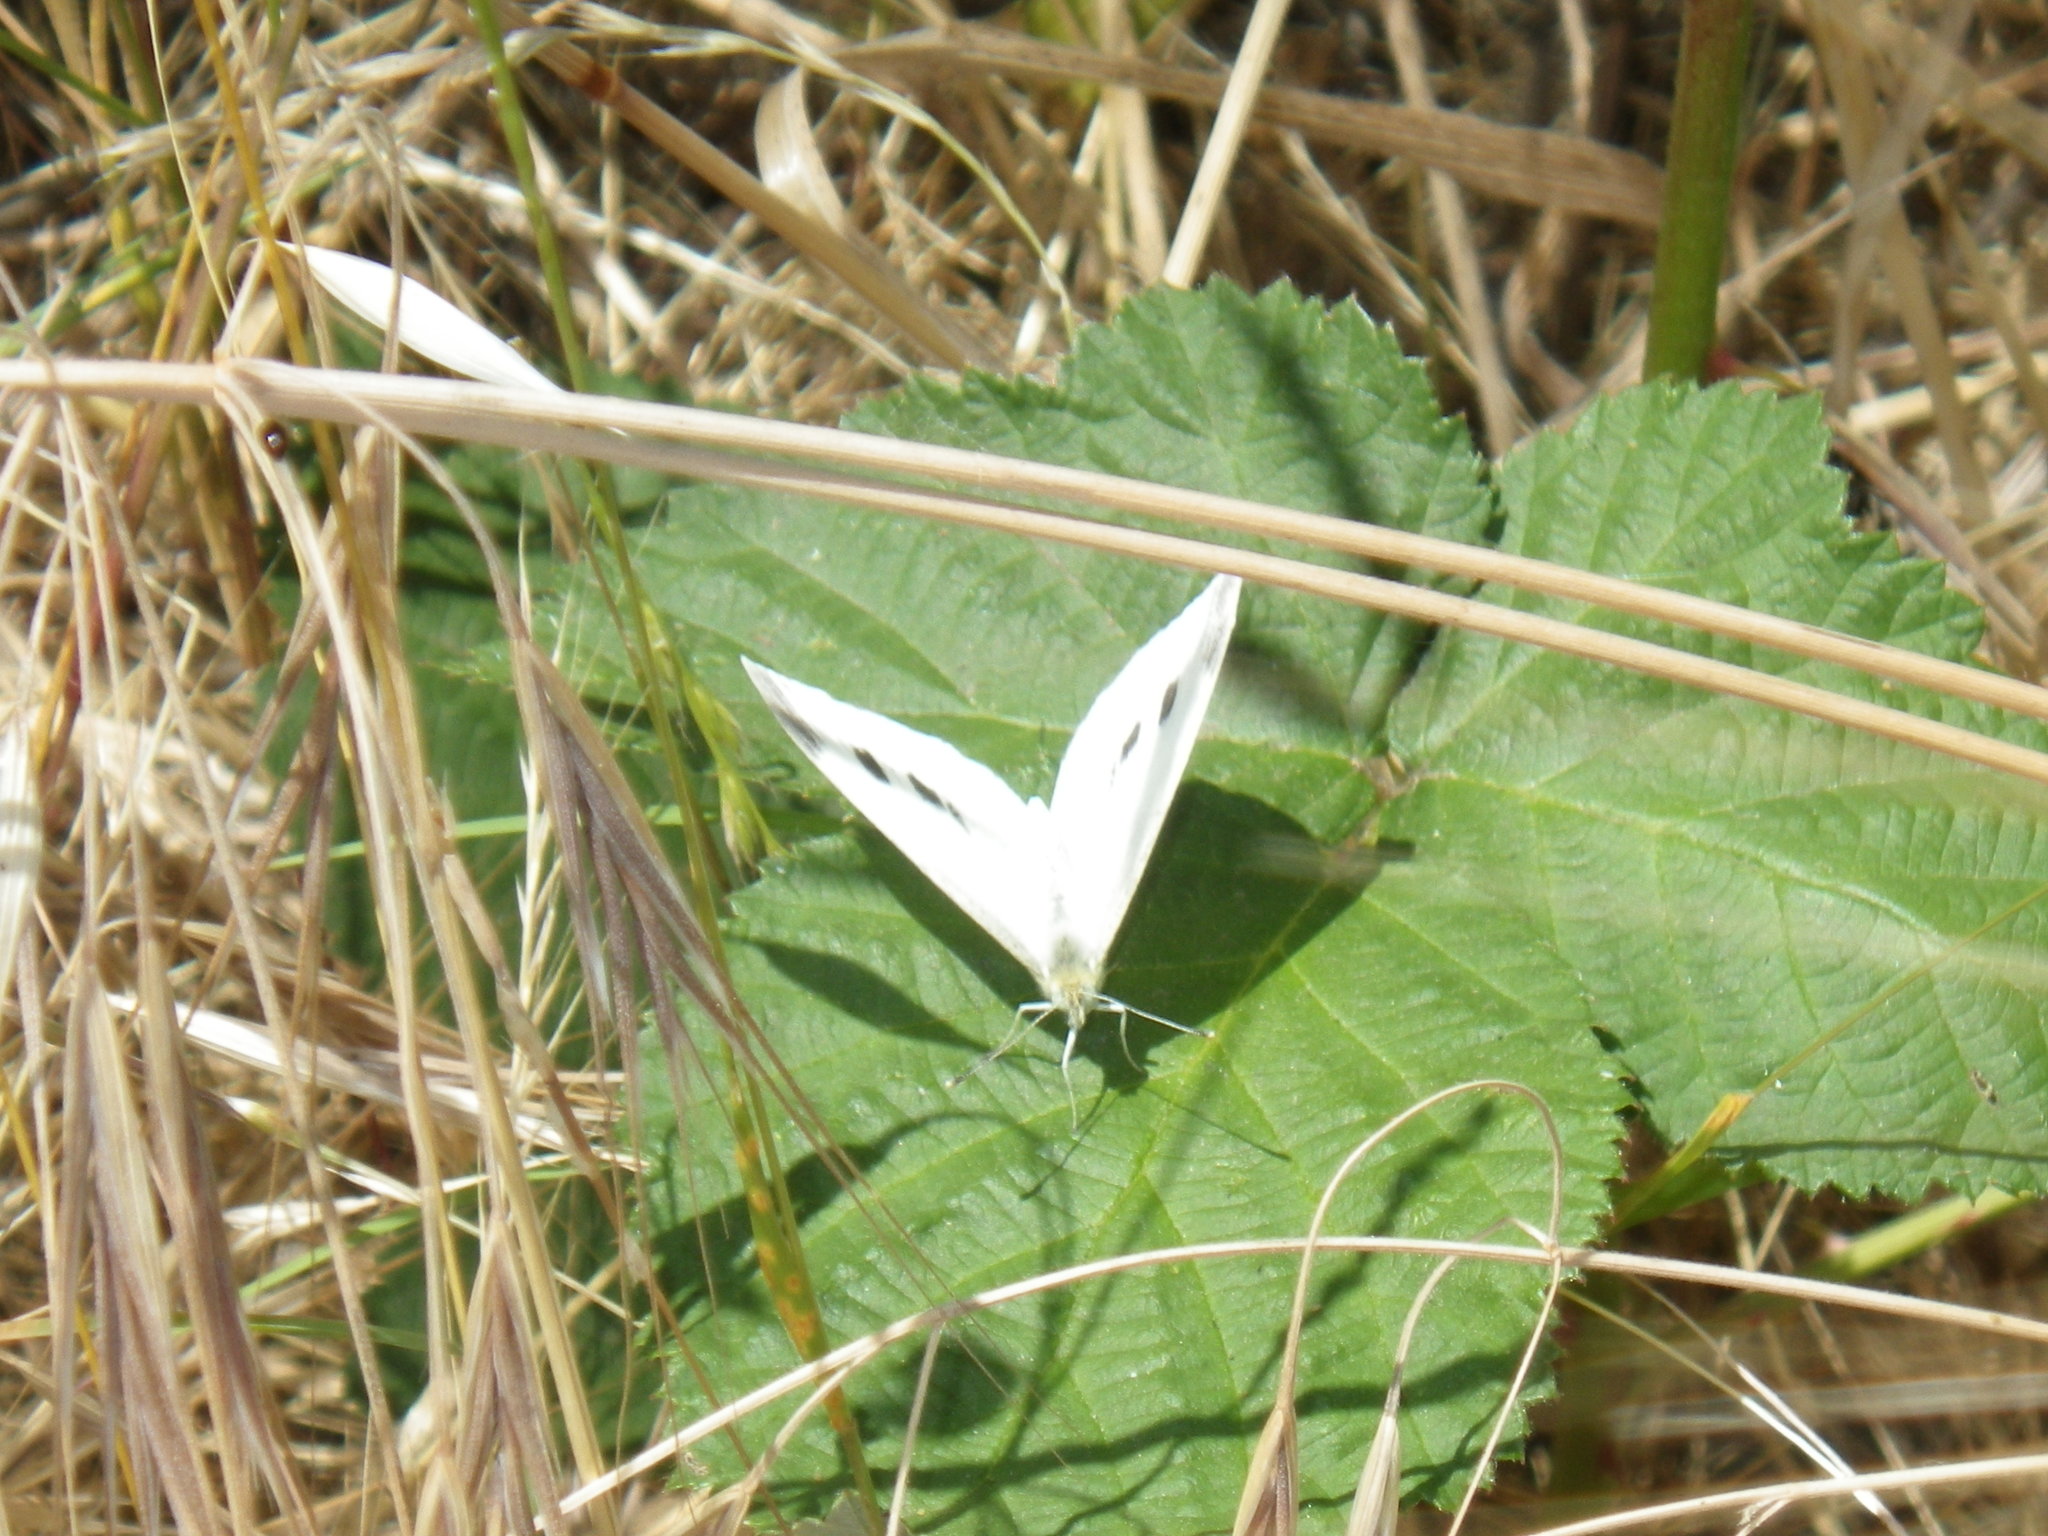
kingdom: Animalia
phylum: Arthropoda
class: Insecta
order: Lepidoptera
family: Pieridae
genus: Pieris
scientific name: Pieris rapae
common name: Small white
